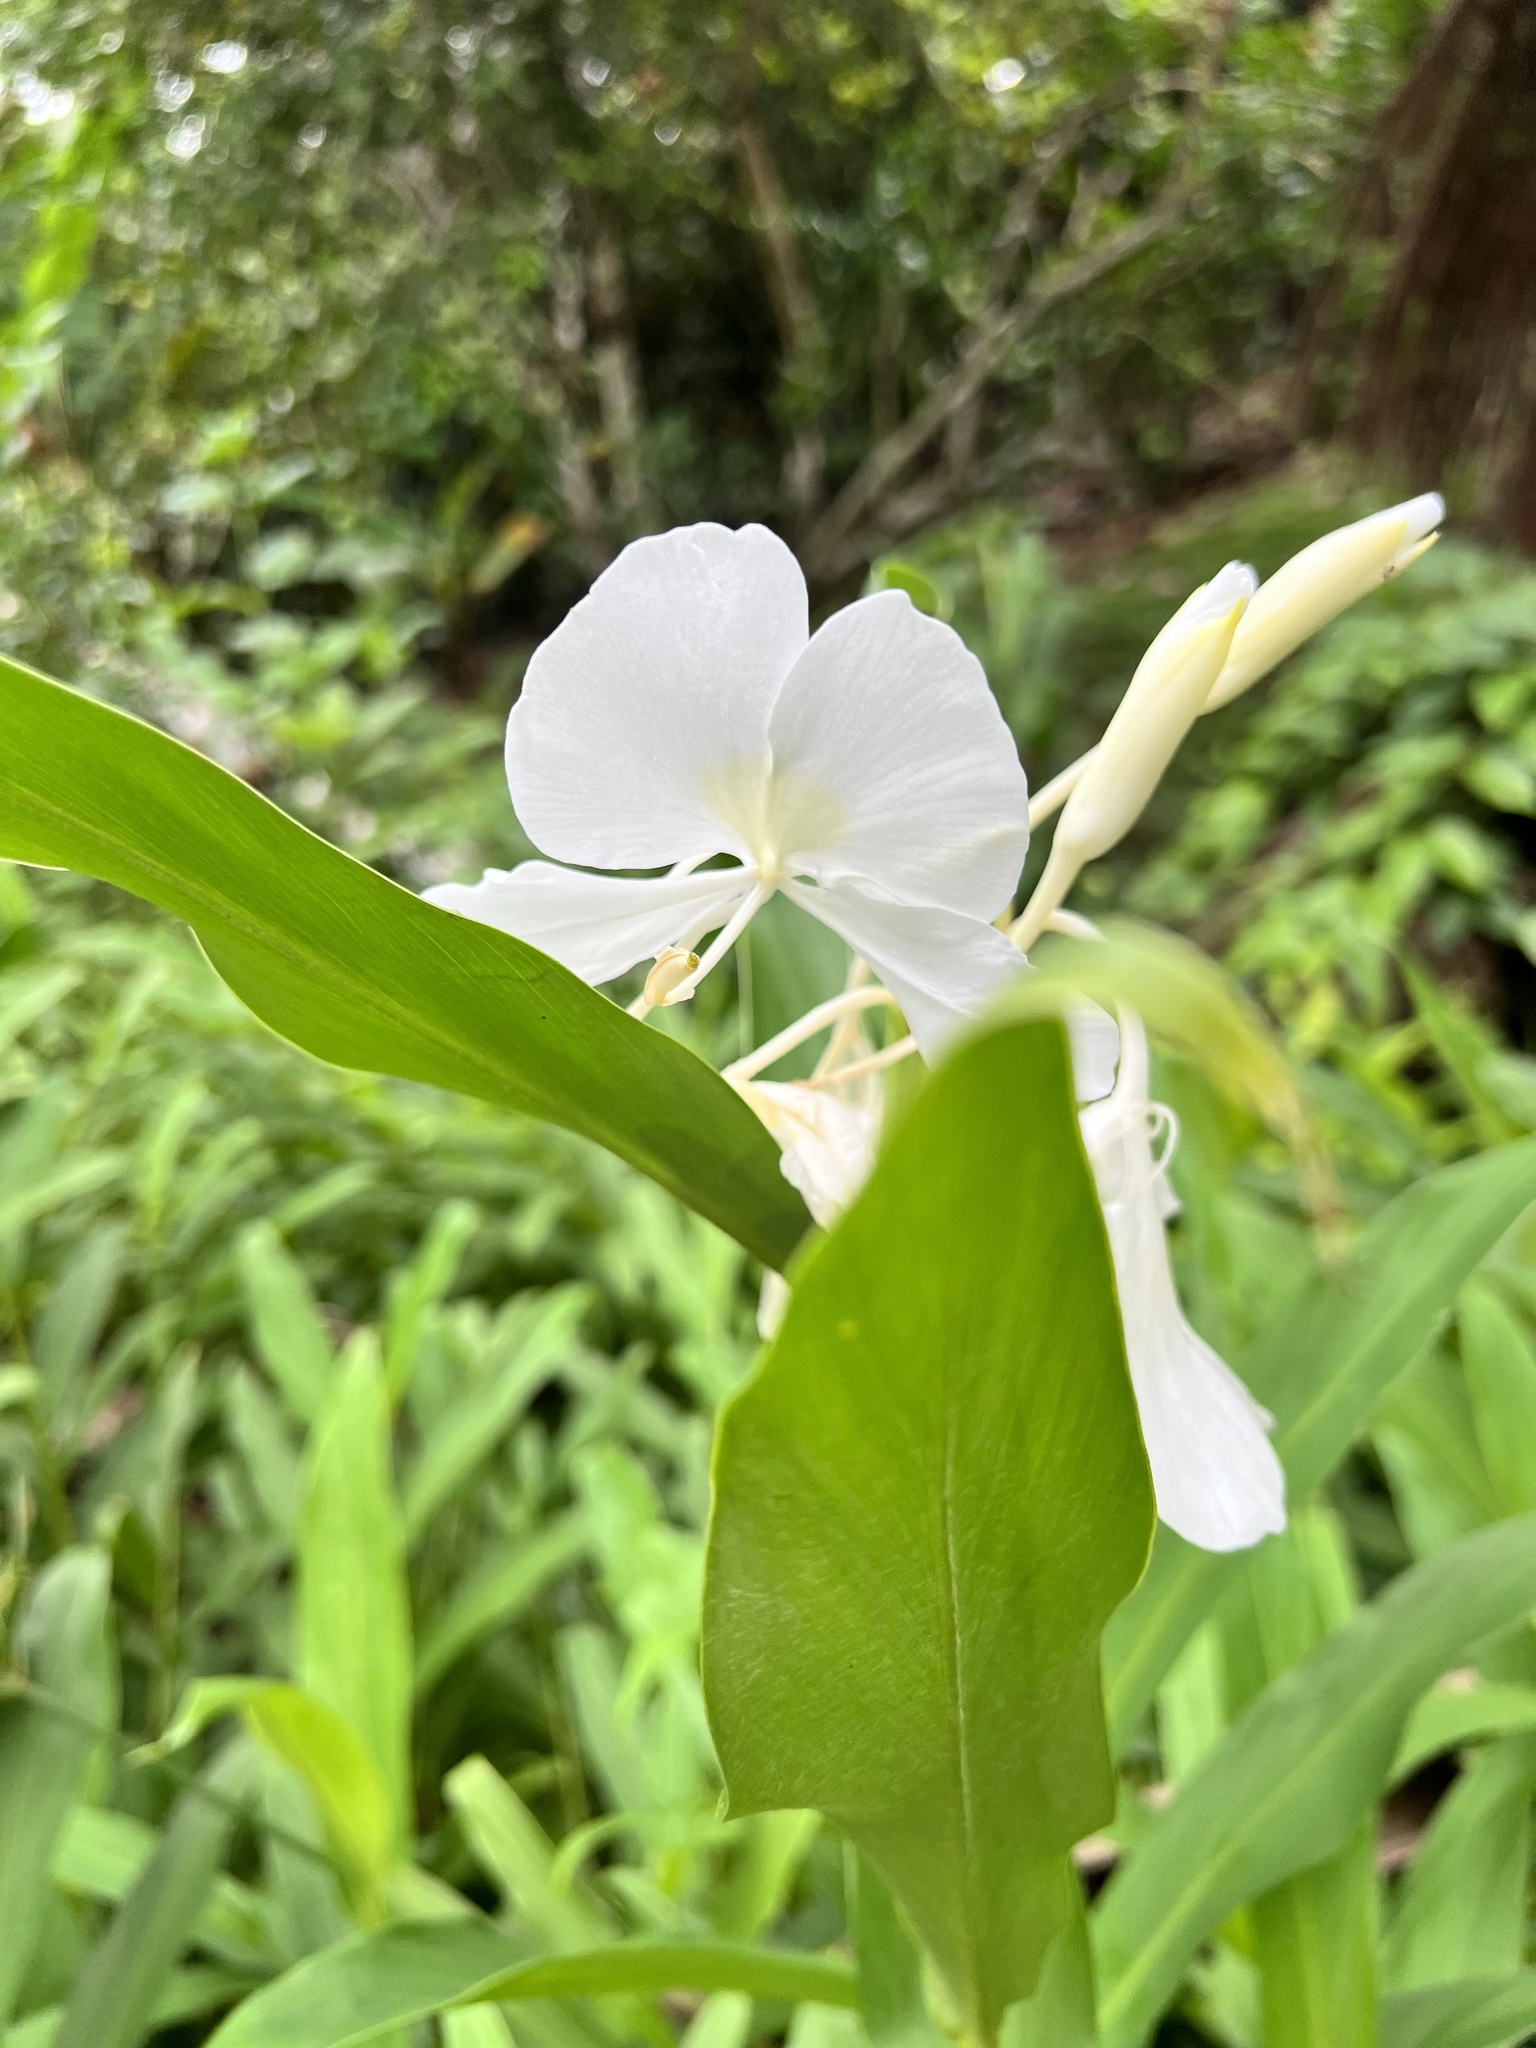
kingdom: Plantae
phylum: Tracheophyta
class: Liliopsida
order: Zingiberales
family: Zingiberaceae
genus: Hedychium
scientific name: Hedychium coronarium
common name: White garland-lily
